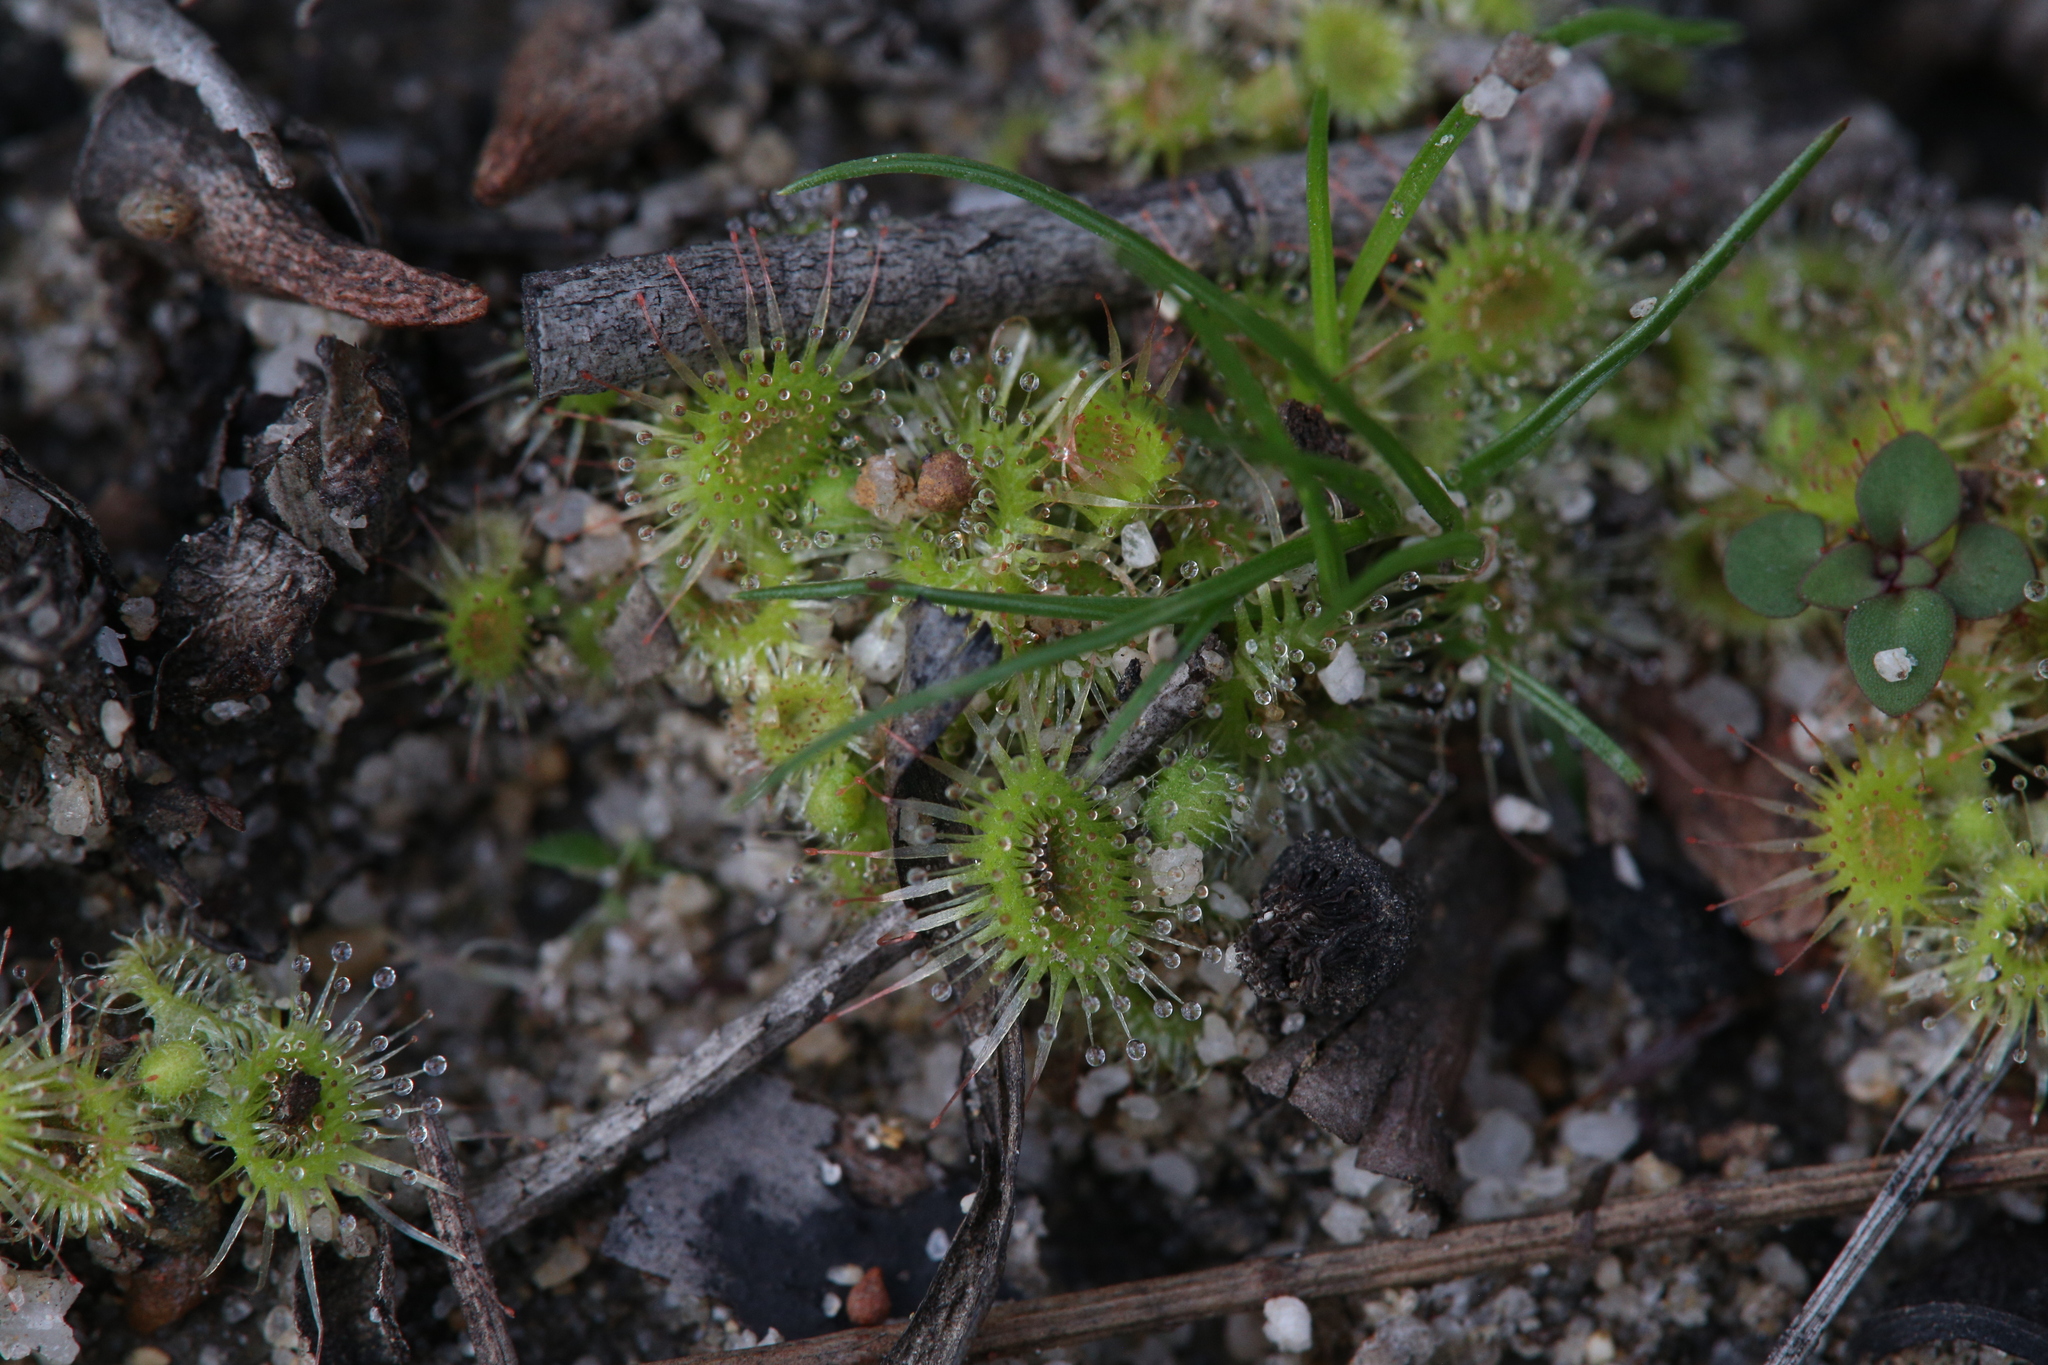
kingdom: Plantae
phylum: Tracheophyta
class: Magnoliopsida
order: Caryophyllales
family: Droseraceae
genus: Drosera
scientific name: Drosera glanduligera
